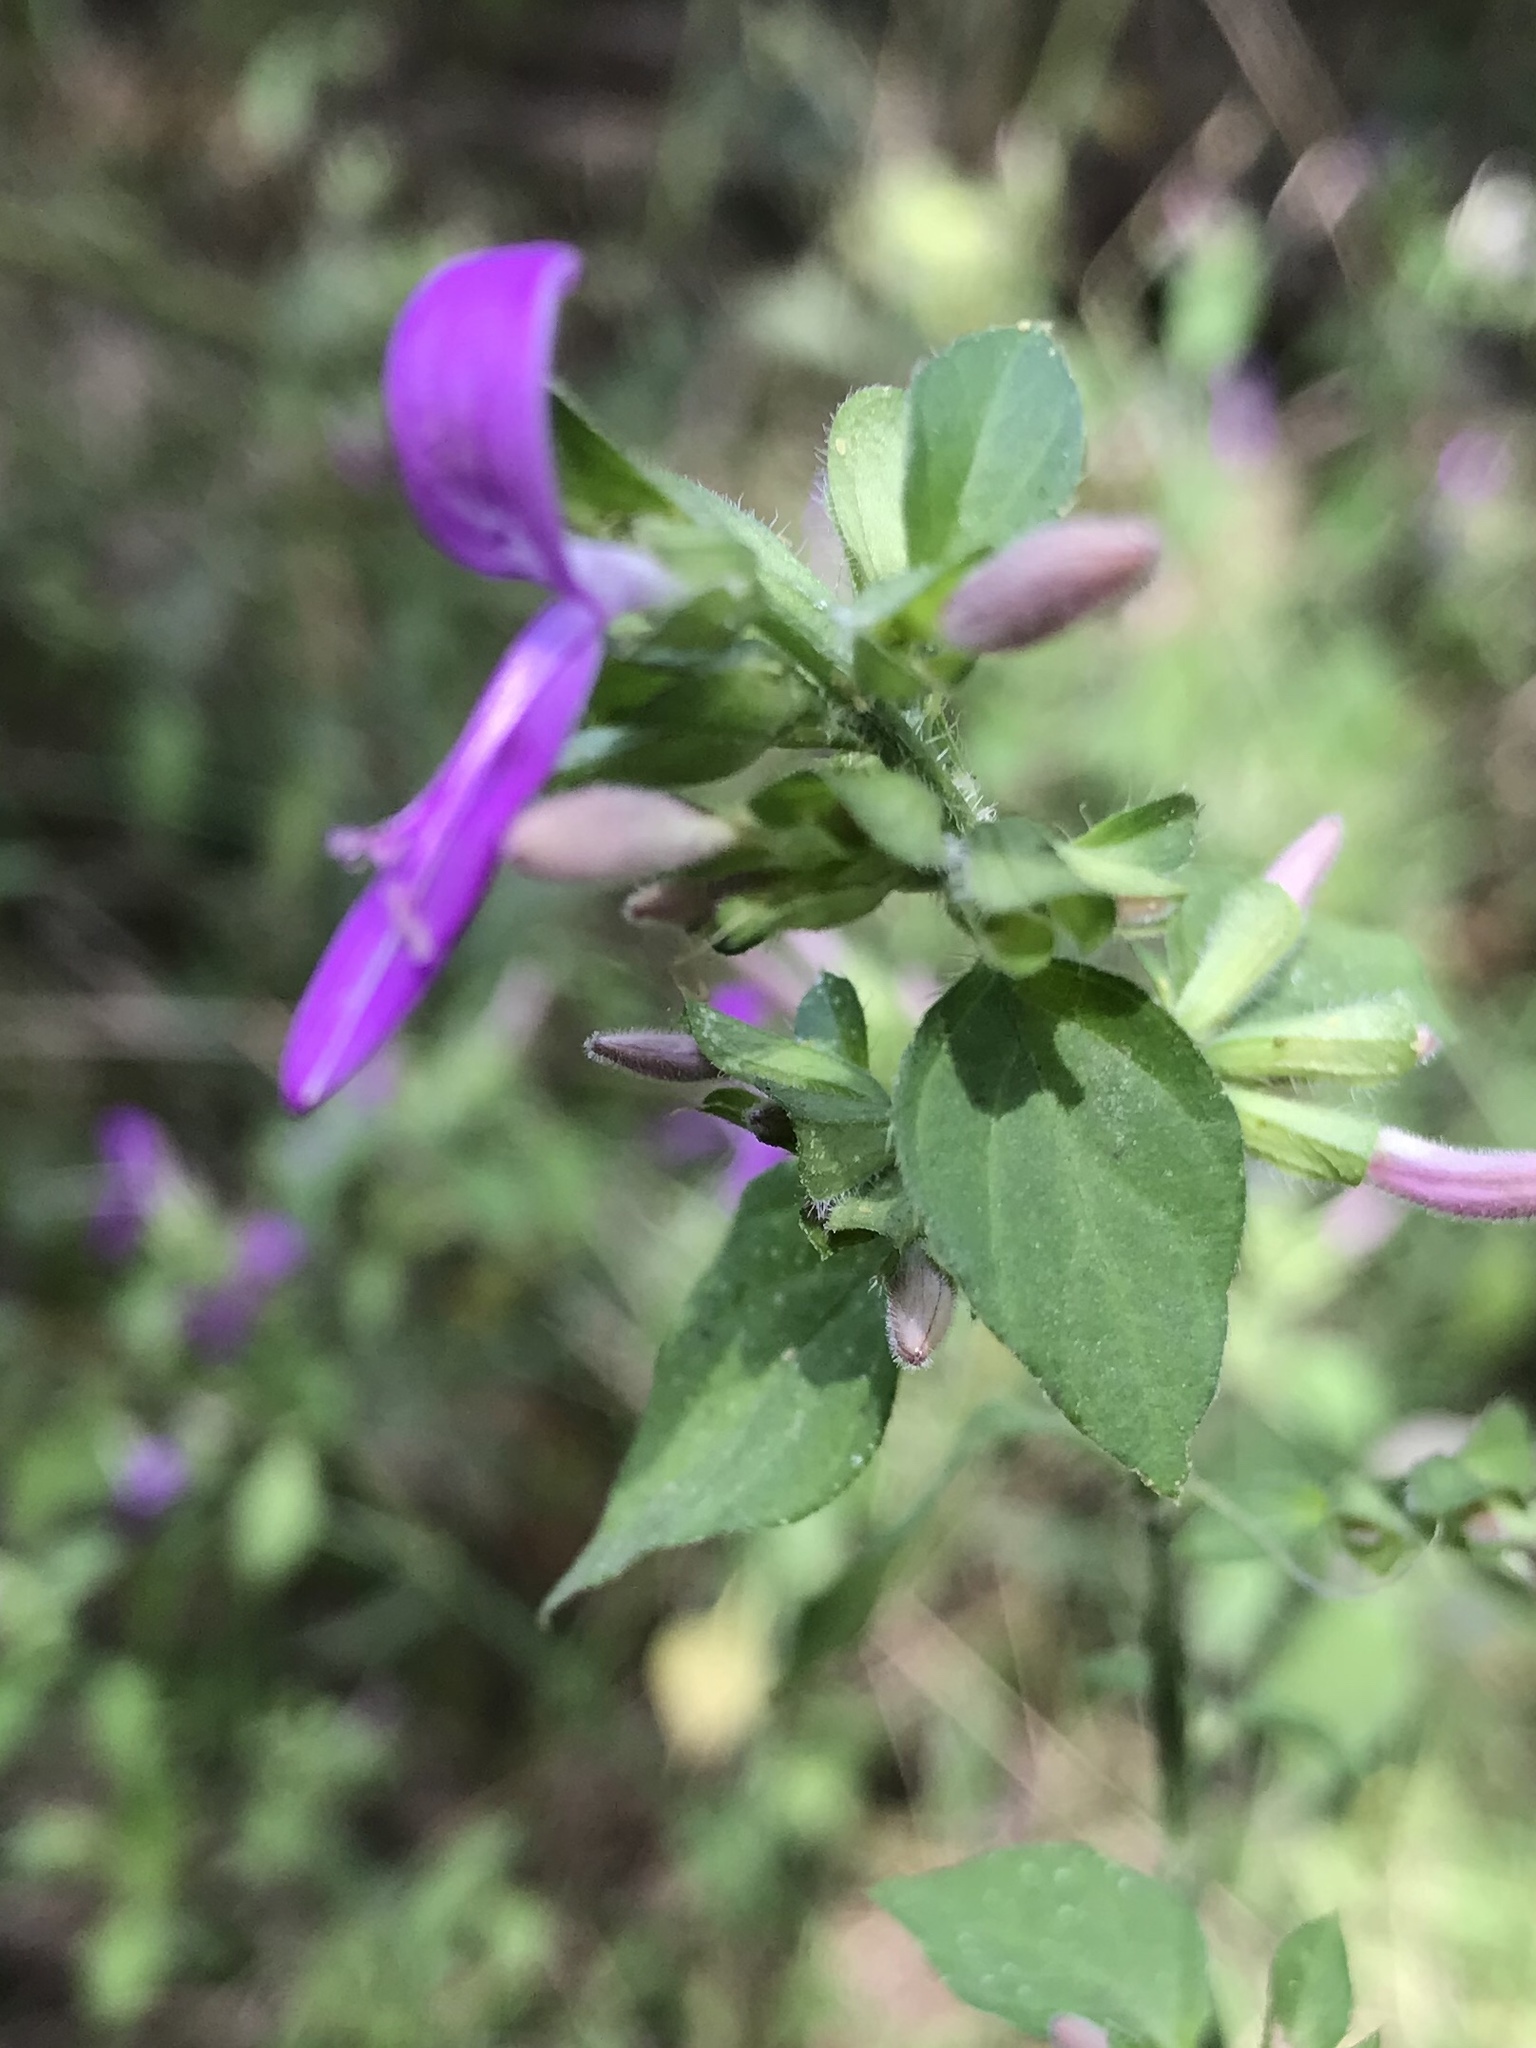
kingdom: Plantae
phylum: Tracheophyta
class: Magnoliopsida
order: Lamiales
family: Acanthaceae
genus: Dicliptera
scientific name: Dicliptera brachiata
